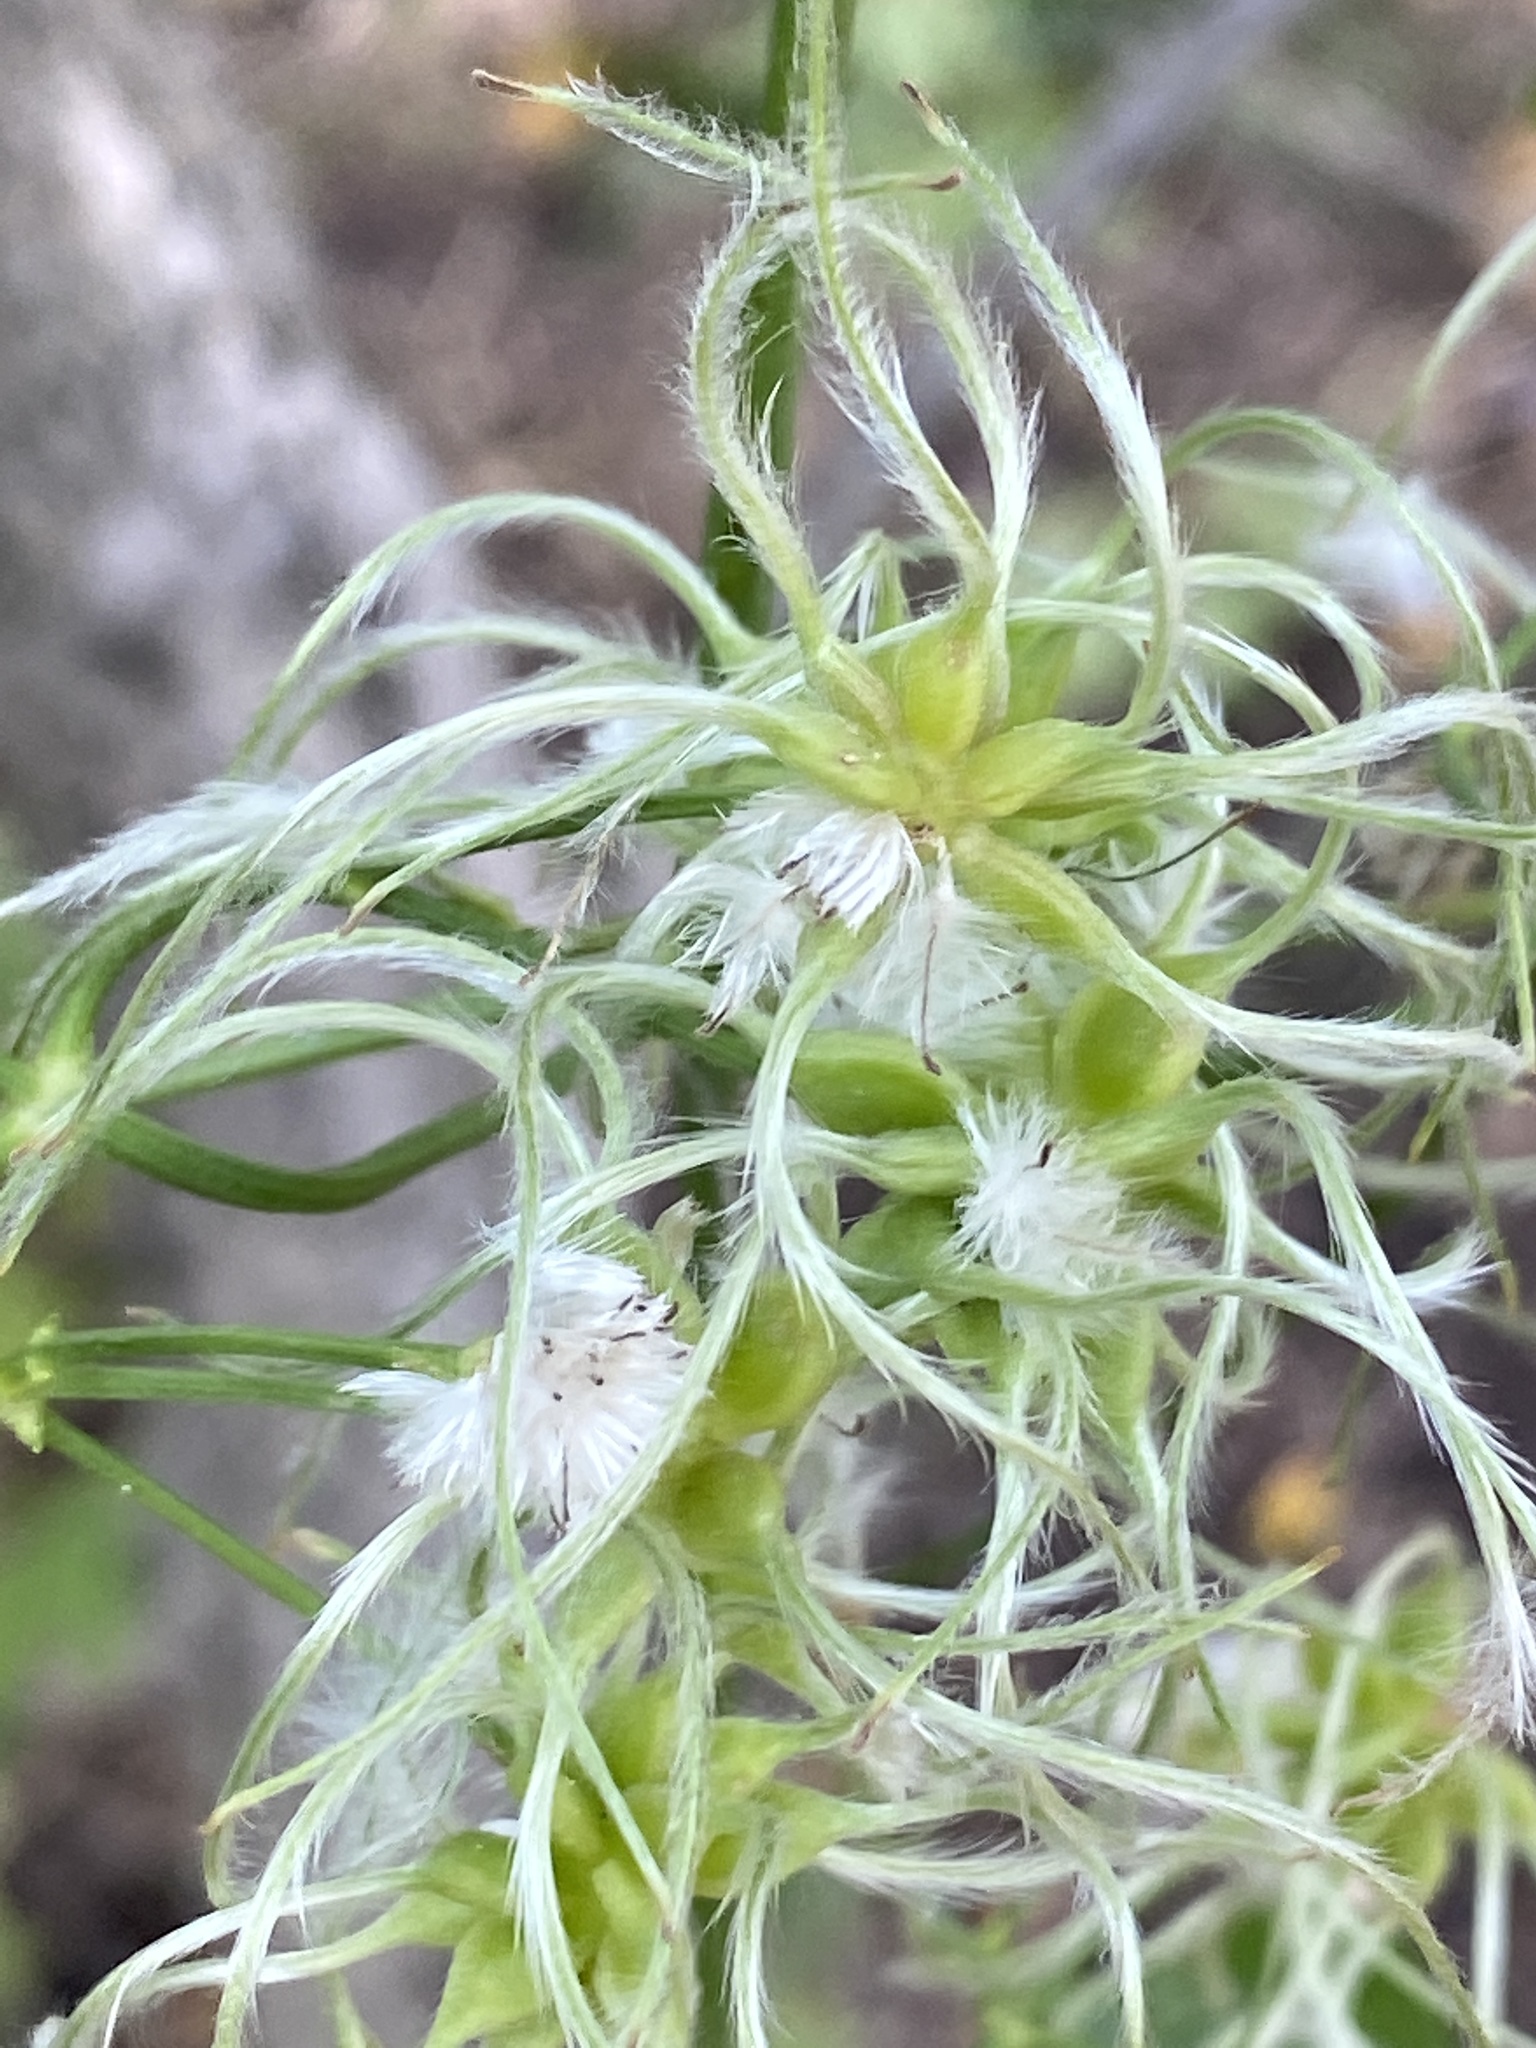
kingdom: Plantae
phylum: Tracheophyta
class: Magnoliopsida
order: Ranunculales
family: Ranunculaceae
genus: Clematis
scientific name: Clematis terniflora
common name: Sweet autumn clematis
